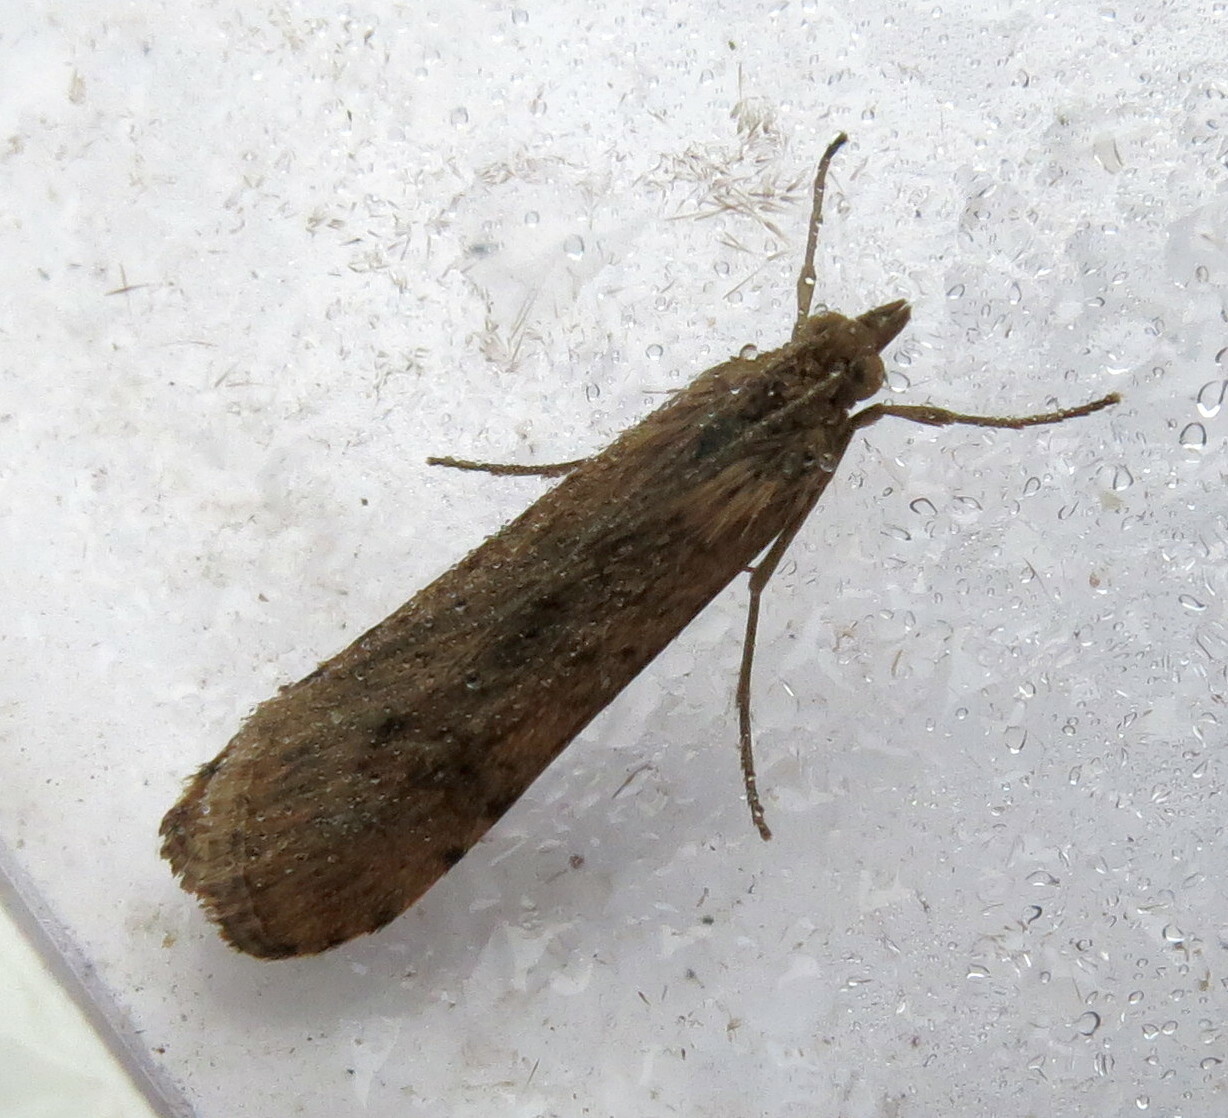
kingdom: Animalia
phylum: Arthropoda
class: Insecta
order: Lepidoptera
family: Crambidae
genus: Nomophila
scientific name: Nomophila noctuella
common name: Rush veneer
